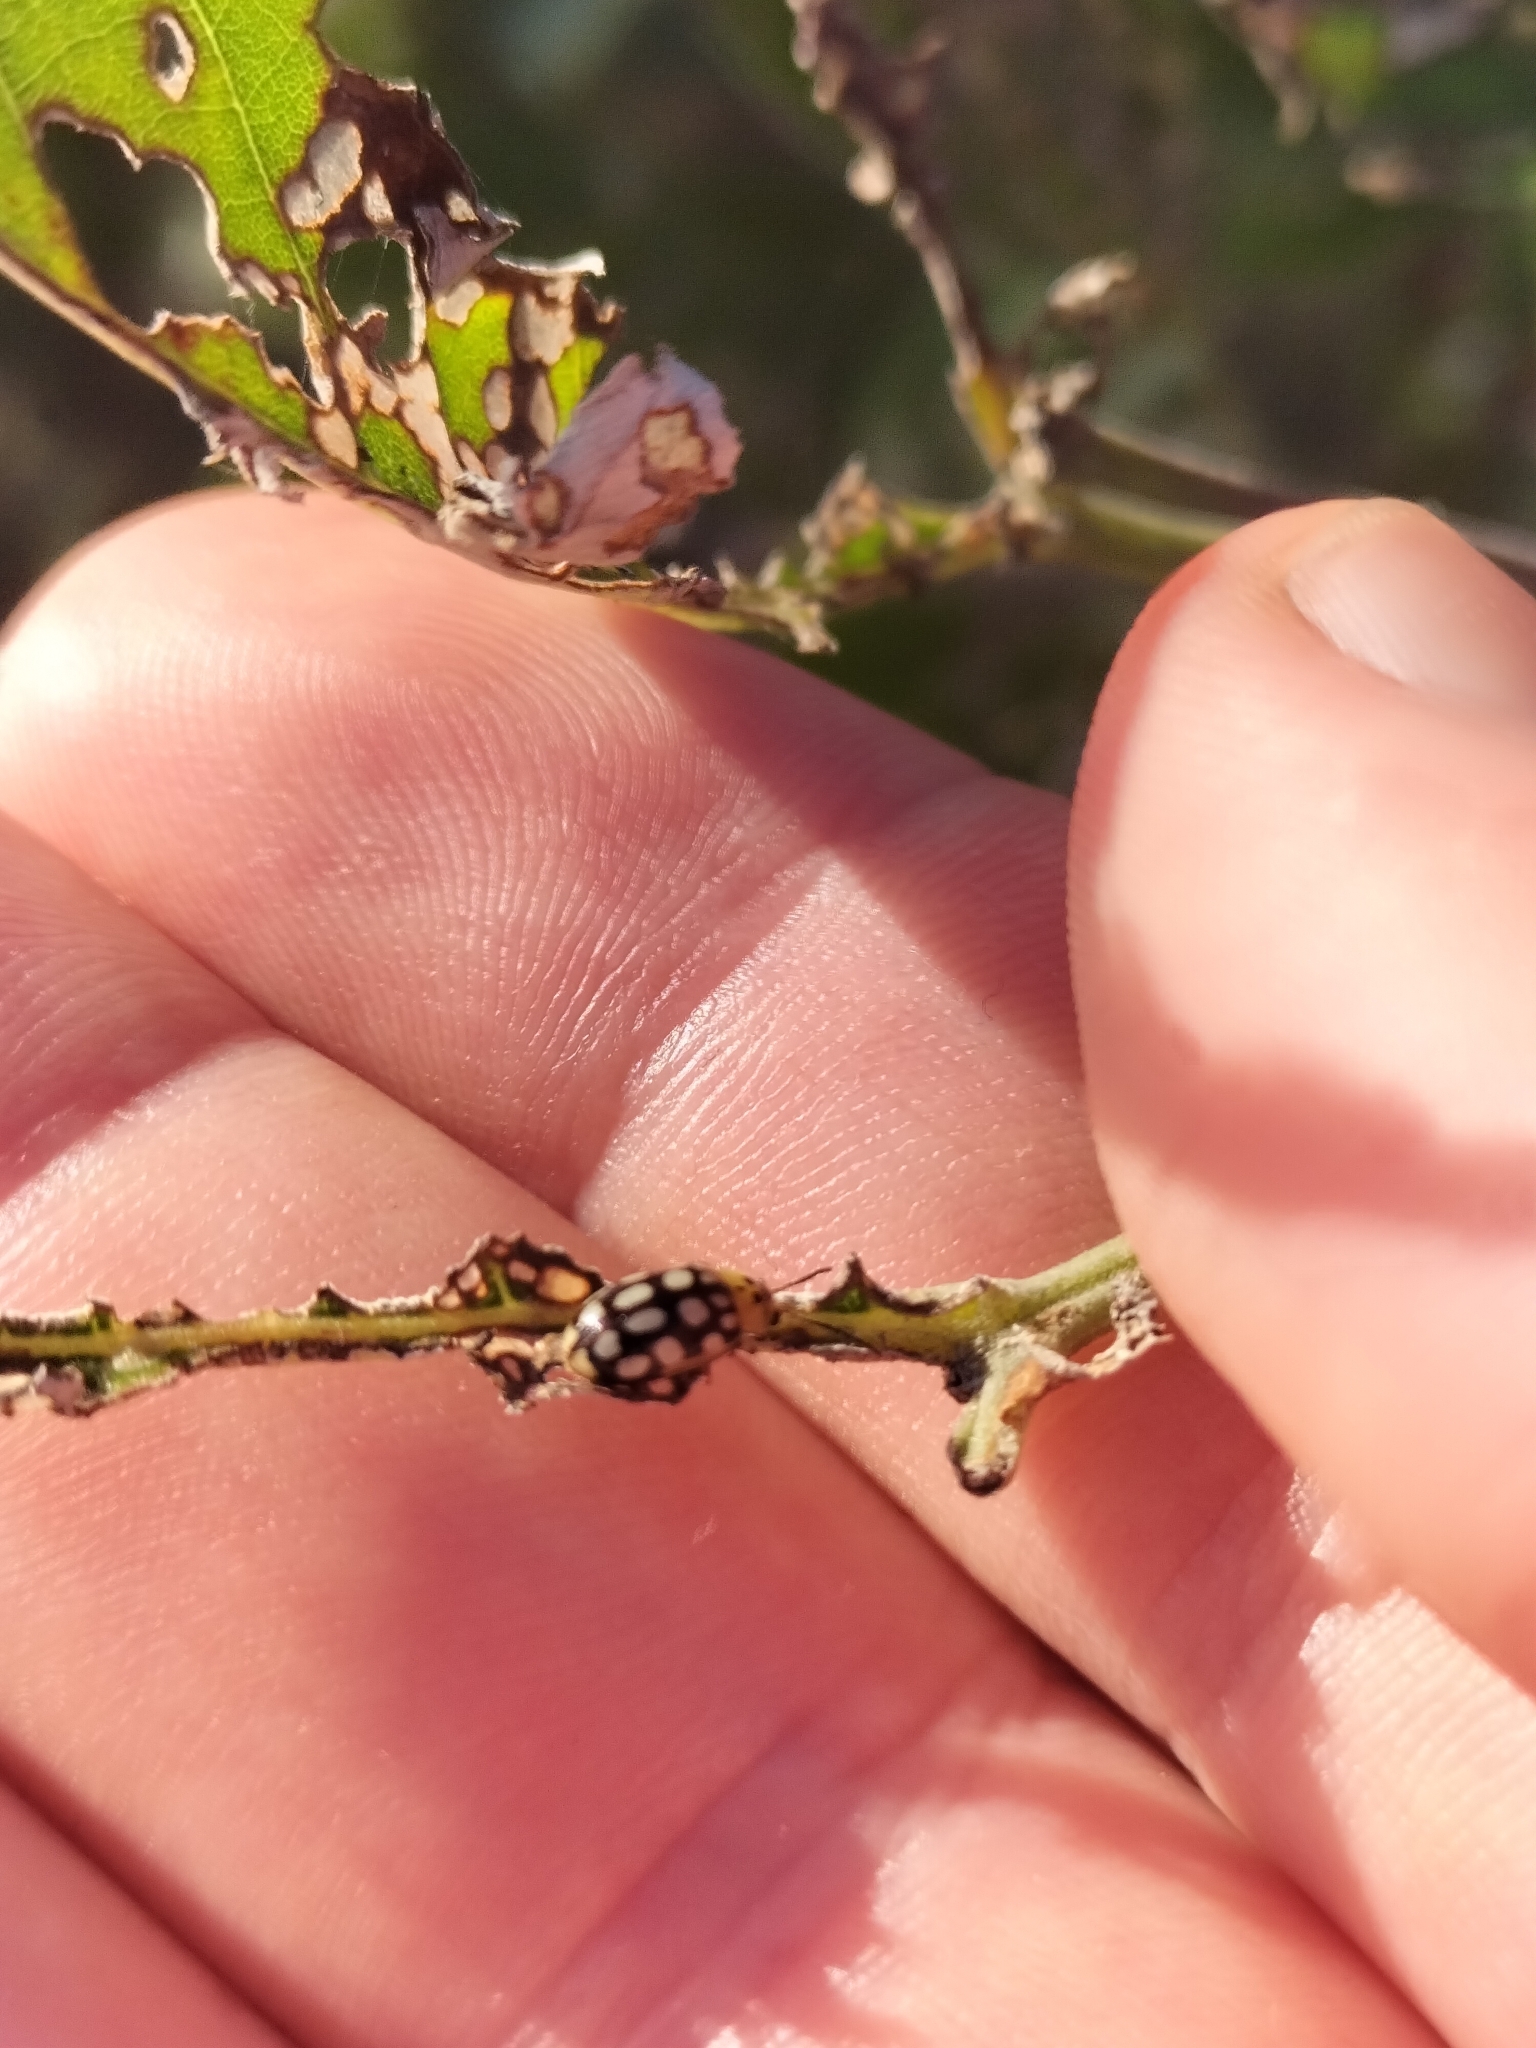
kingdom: Animalia
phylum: Arthropoda
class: Insecta
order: Coleoptera
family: Chrysomelidae
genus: Chalcolampra
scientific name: Chalcolampra octodecimguttata
